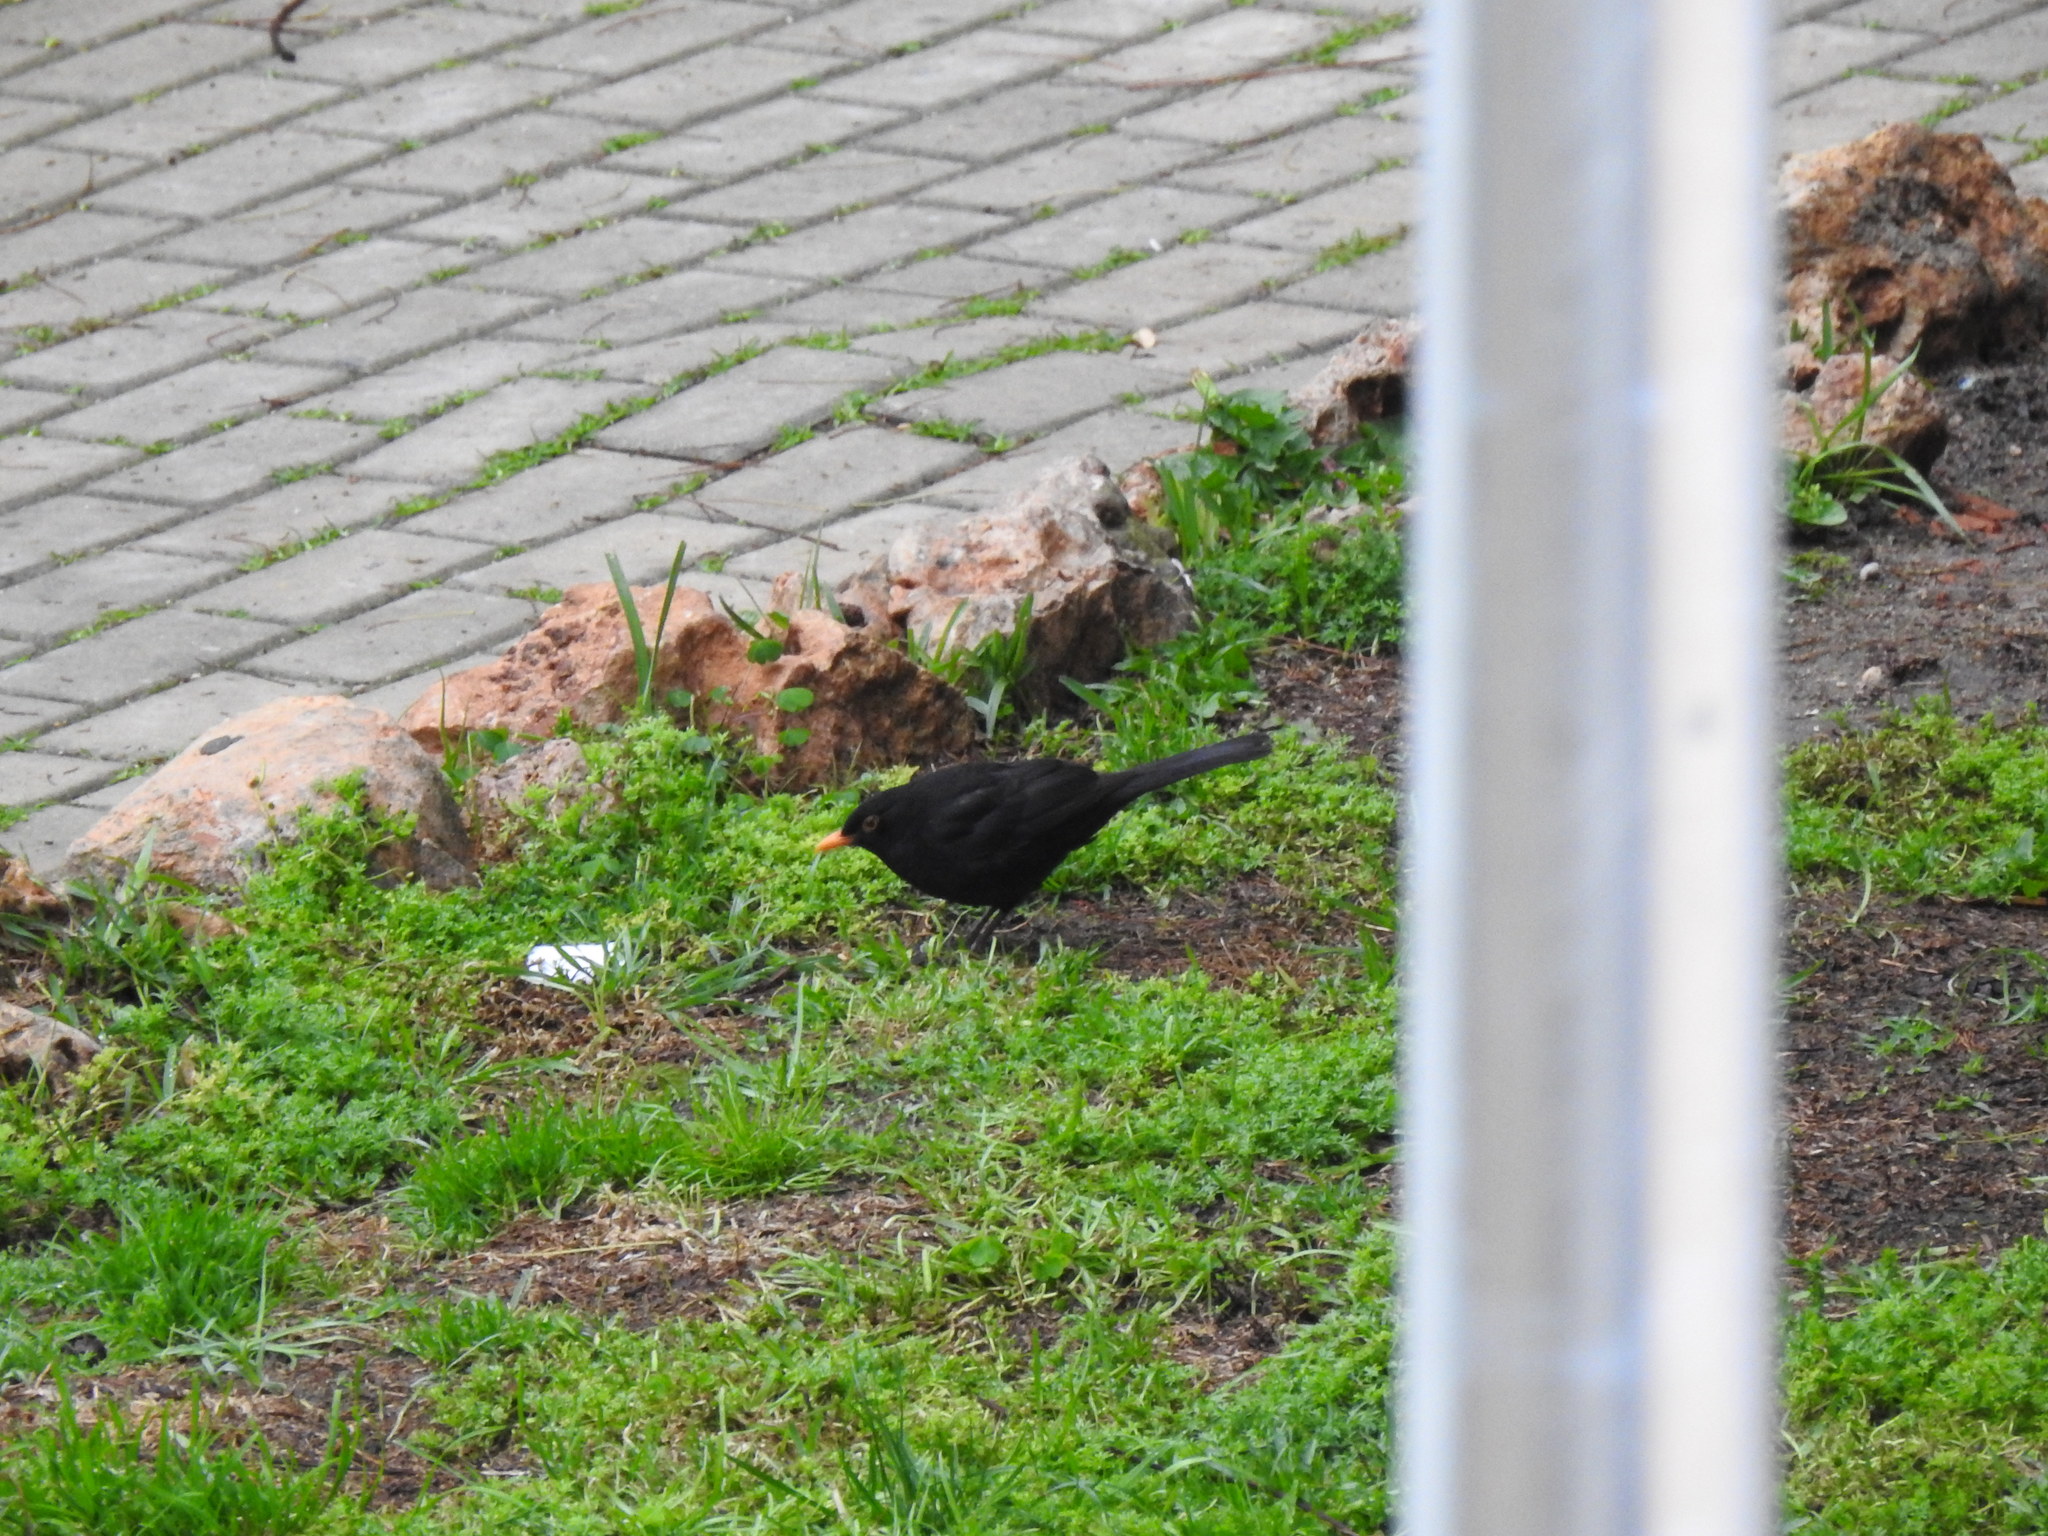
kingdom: Animalia
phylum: Chordata
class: Aves
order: Passeriformes
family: Turdidae
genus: Turdus
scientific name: Turdus merula
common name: Common blackbird
